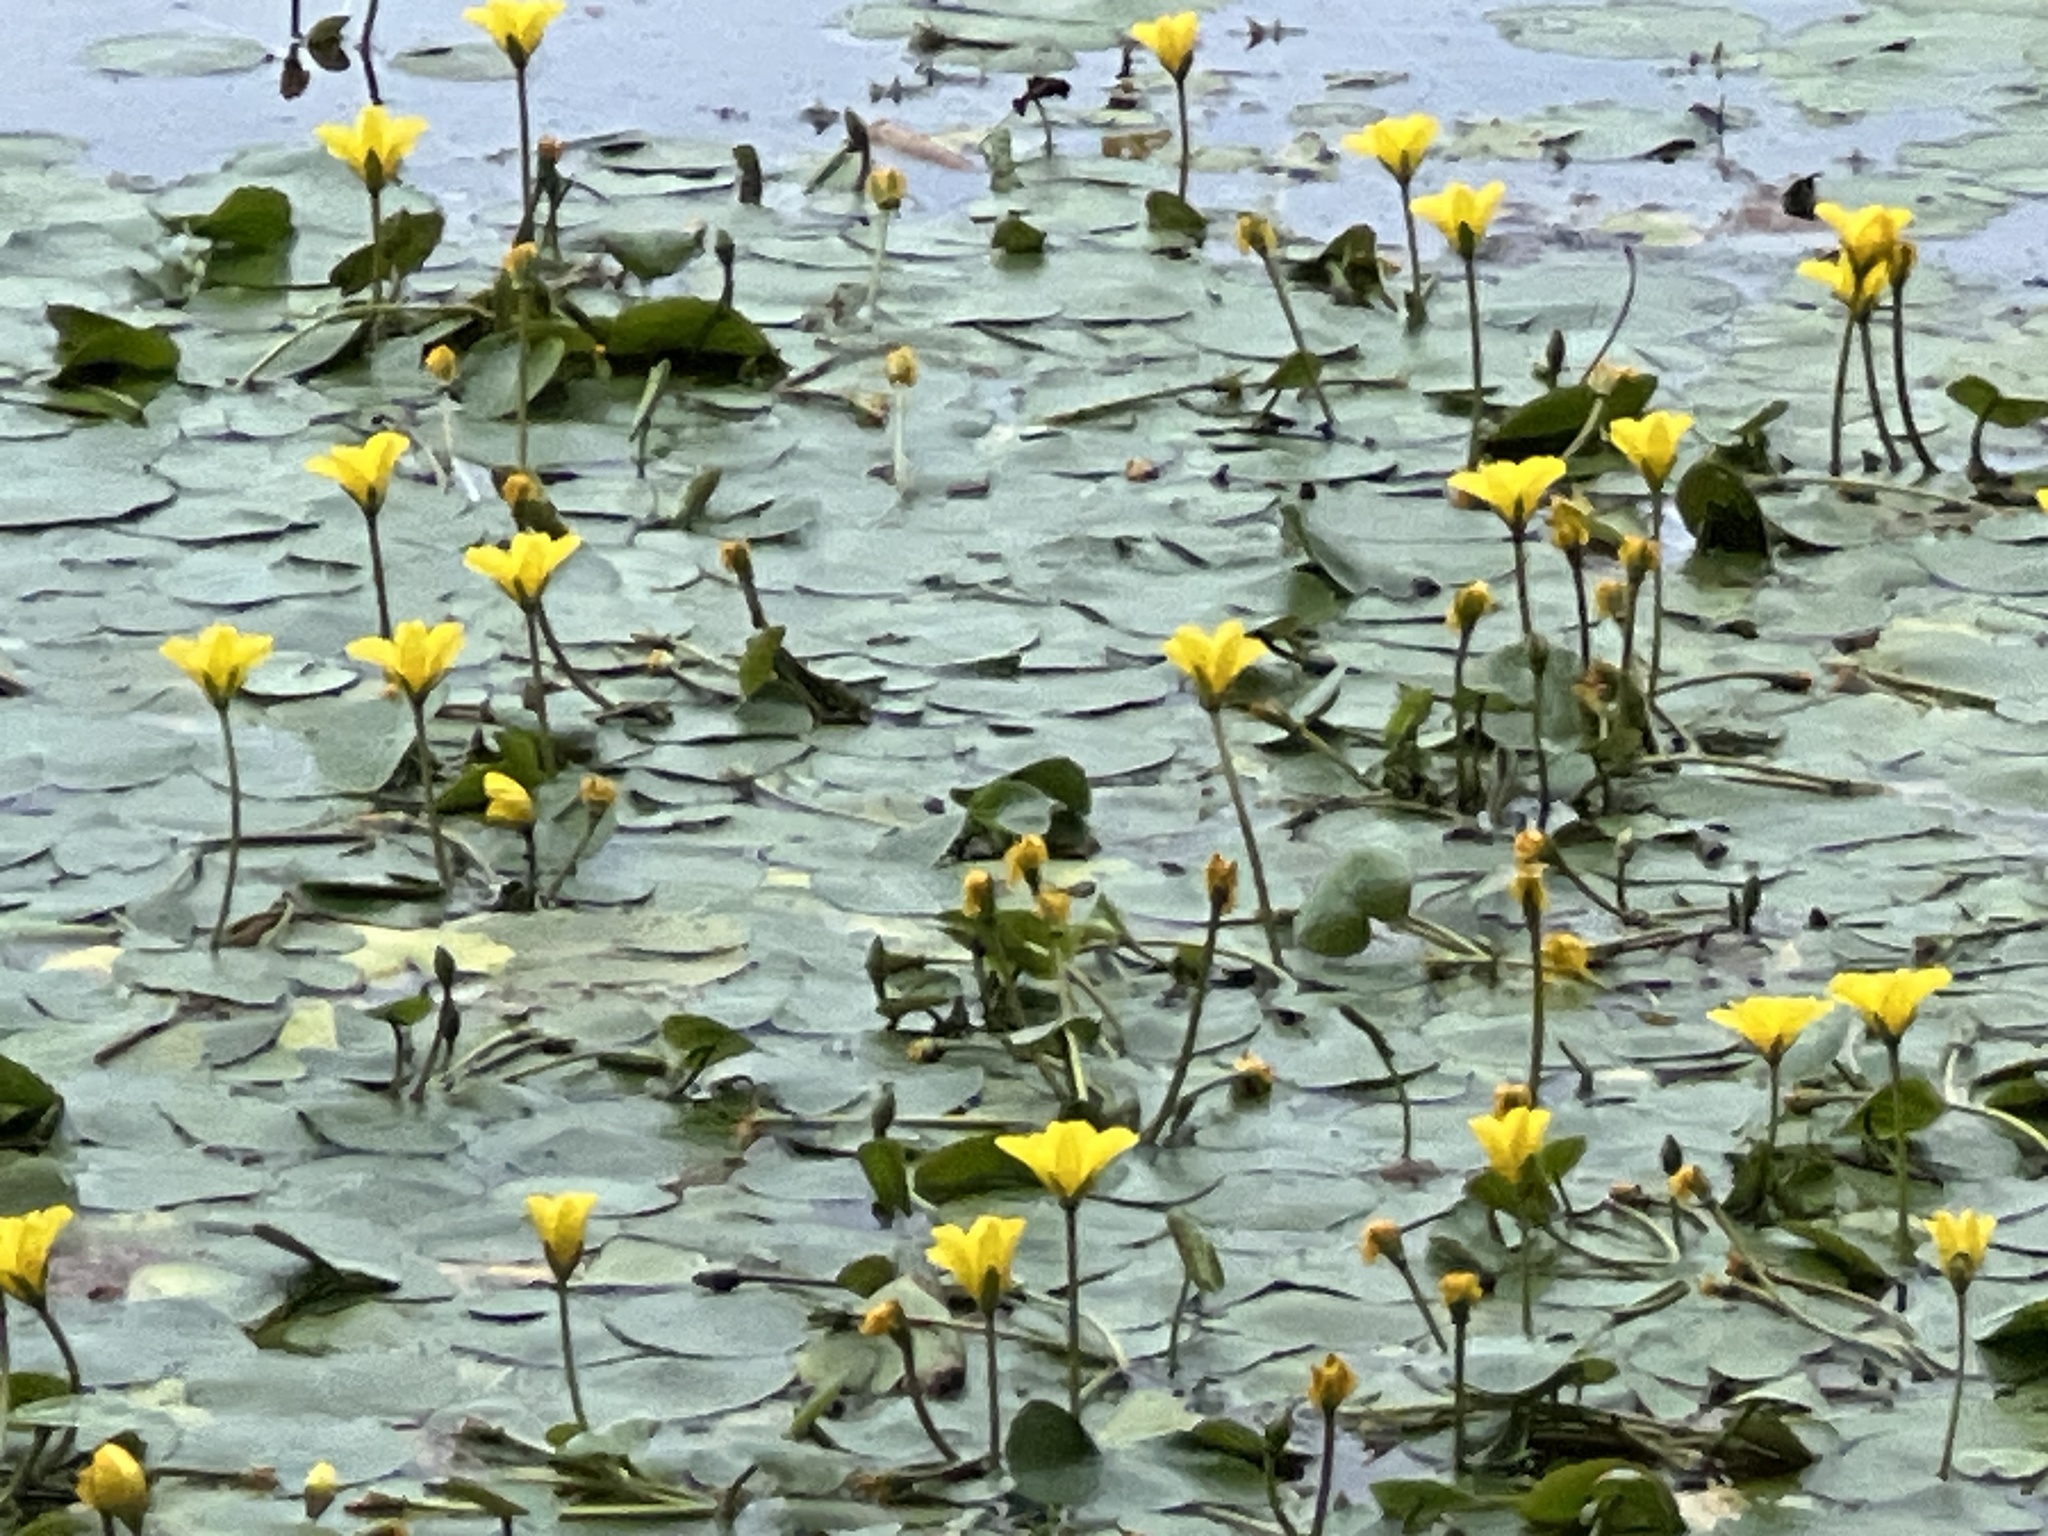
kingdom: Plantae
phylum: Tracheophyta
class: Magnoliopsida
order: Asterales
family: Menyanthaceae
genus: Nymphoides
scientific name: Nymphoides peltata
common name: Fringed water-lily
